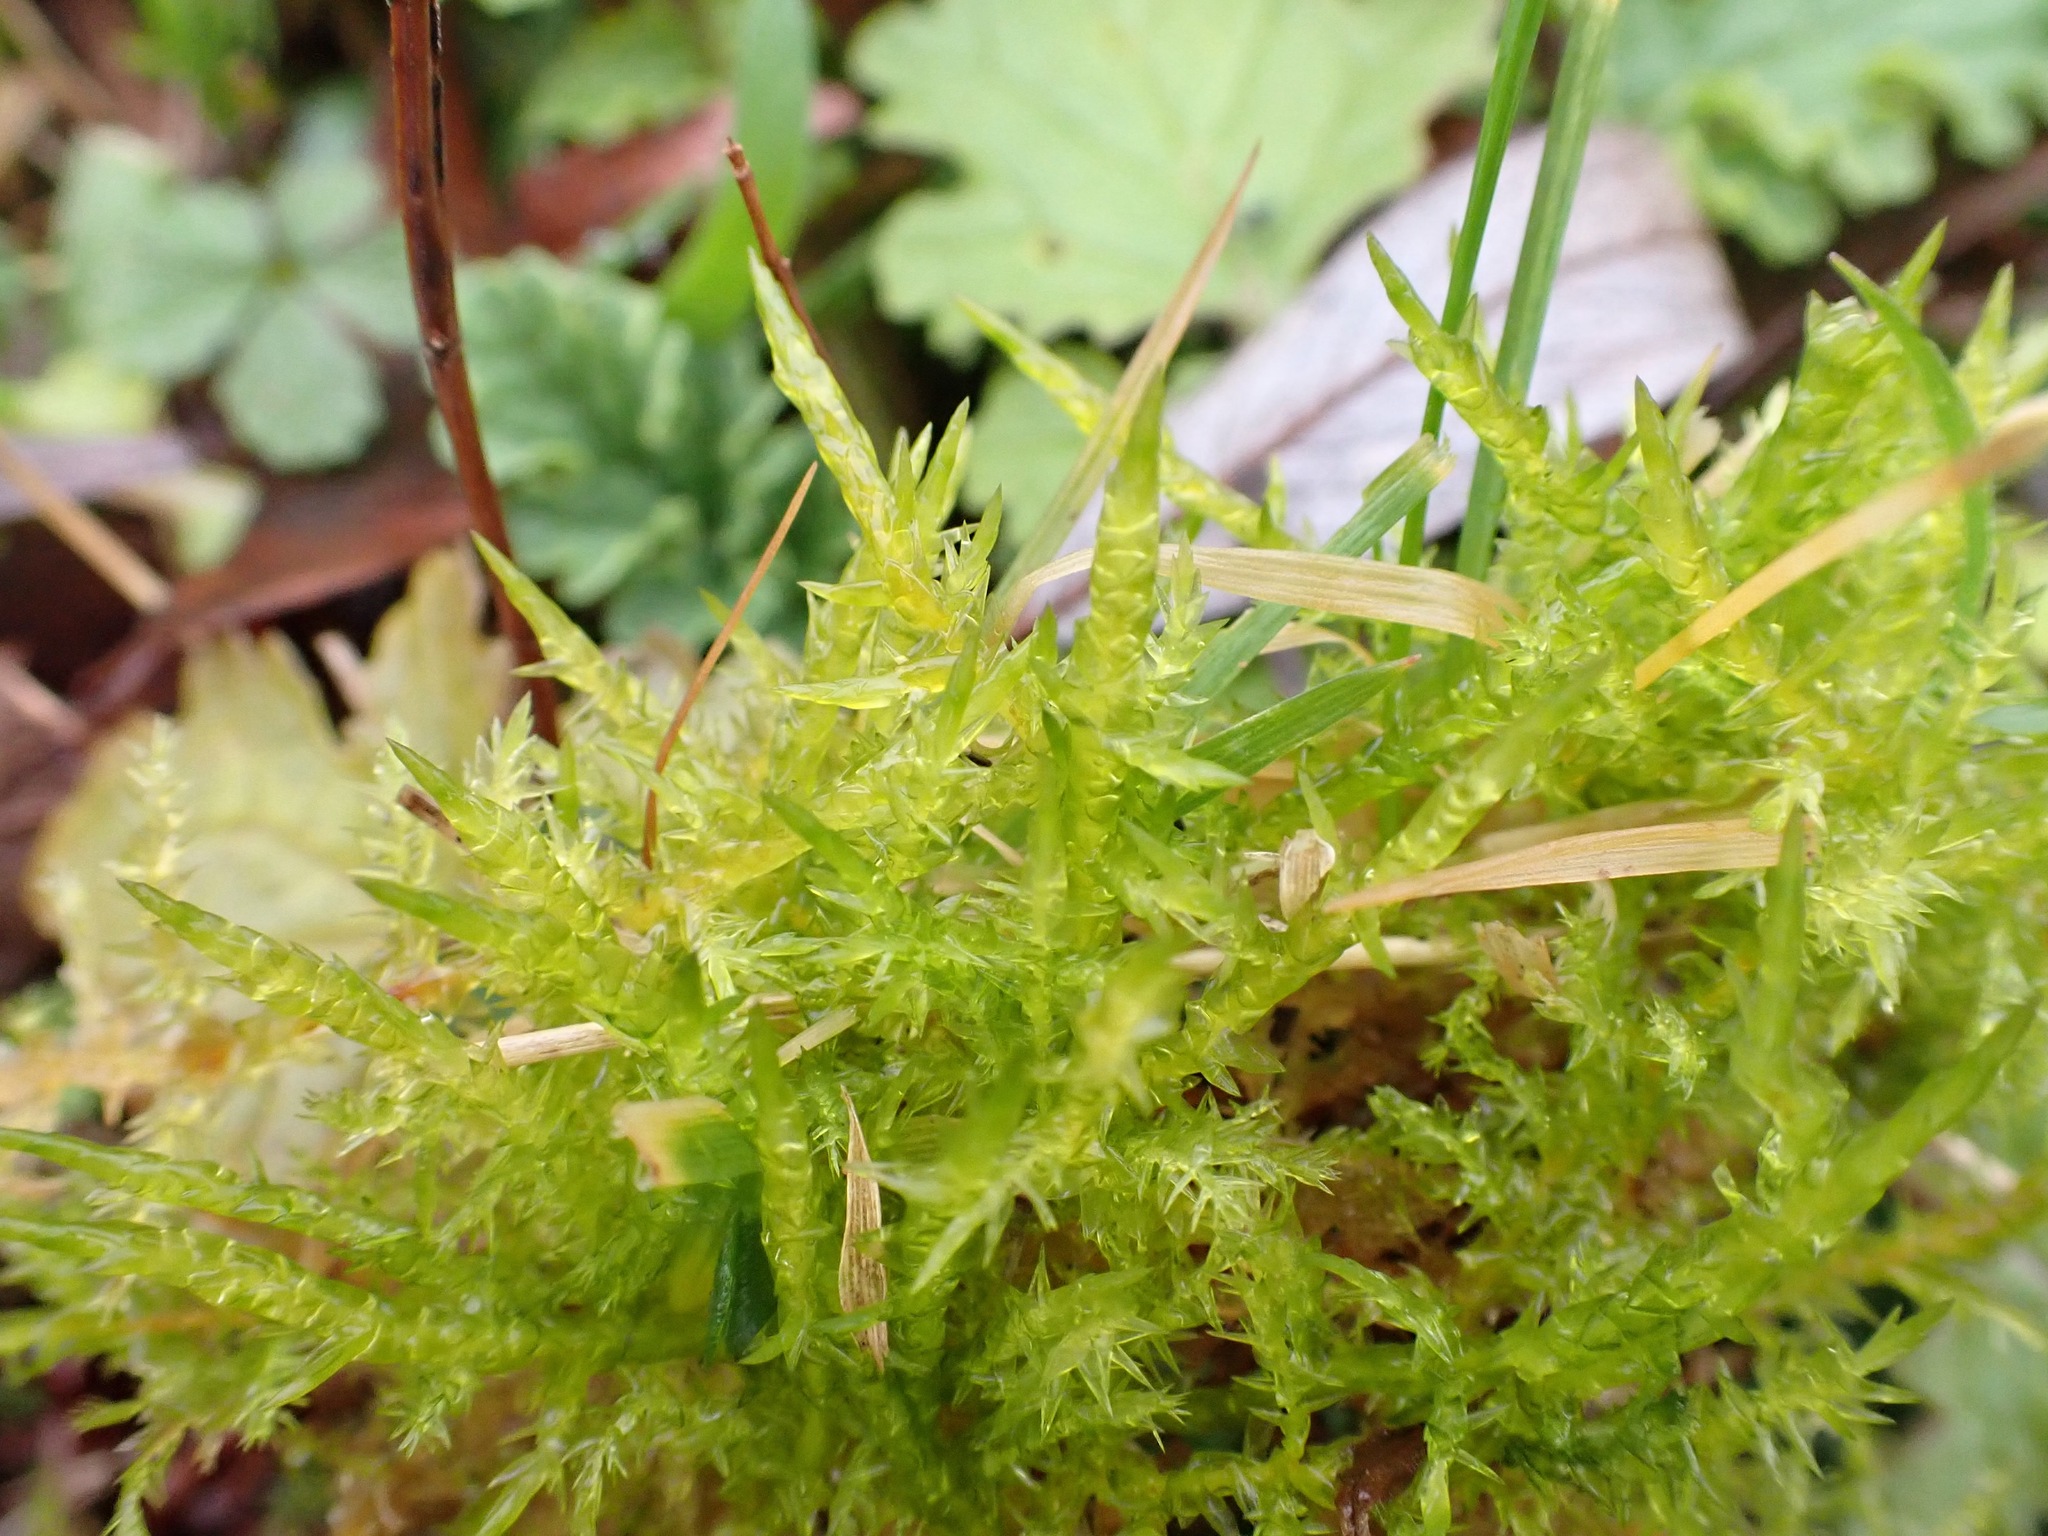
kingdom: Plantae
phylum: Bryophyta
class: Bryopsida
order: Hypnales
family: Pylaisiaceae
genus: Calliergonella
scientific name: Calliergonella cuspidata
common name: Common large wetland moss
